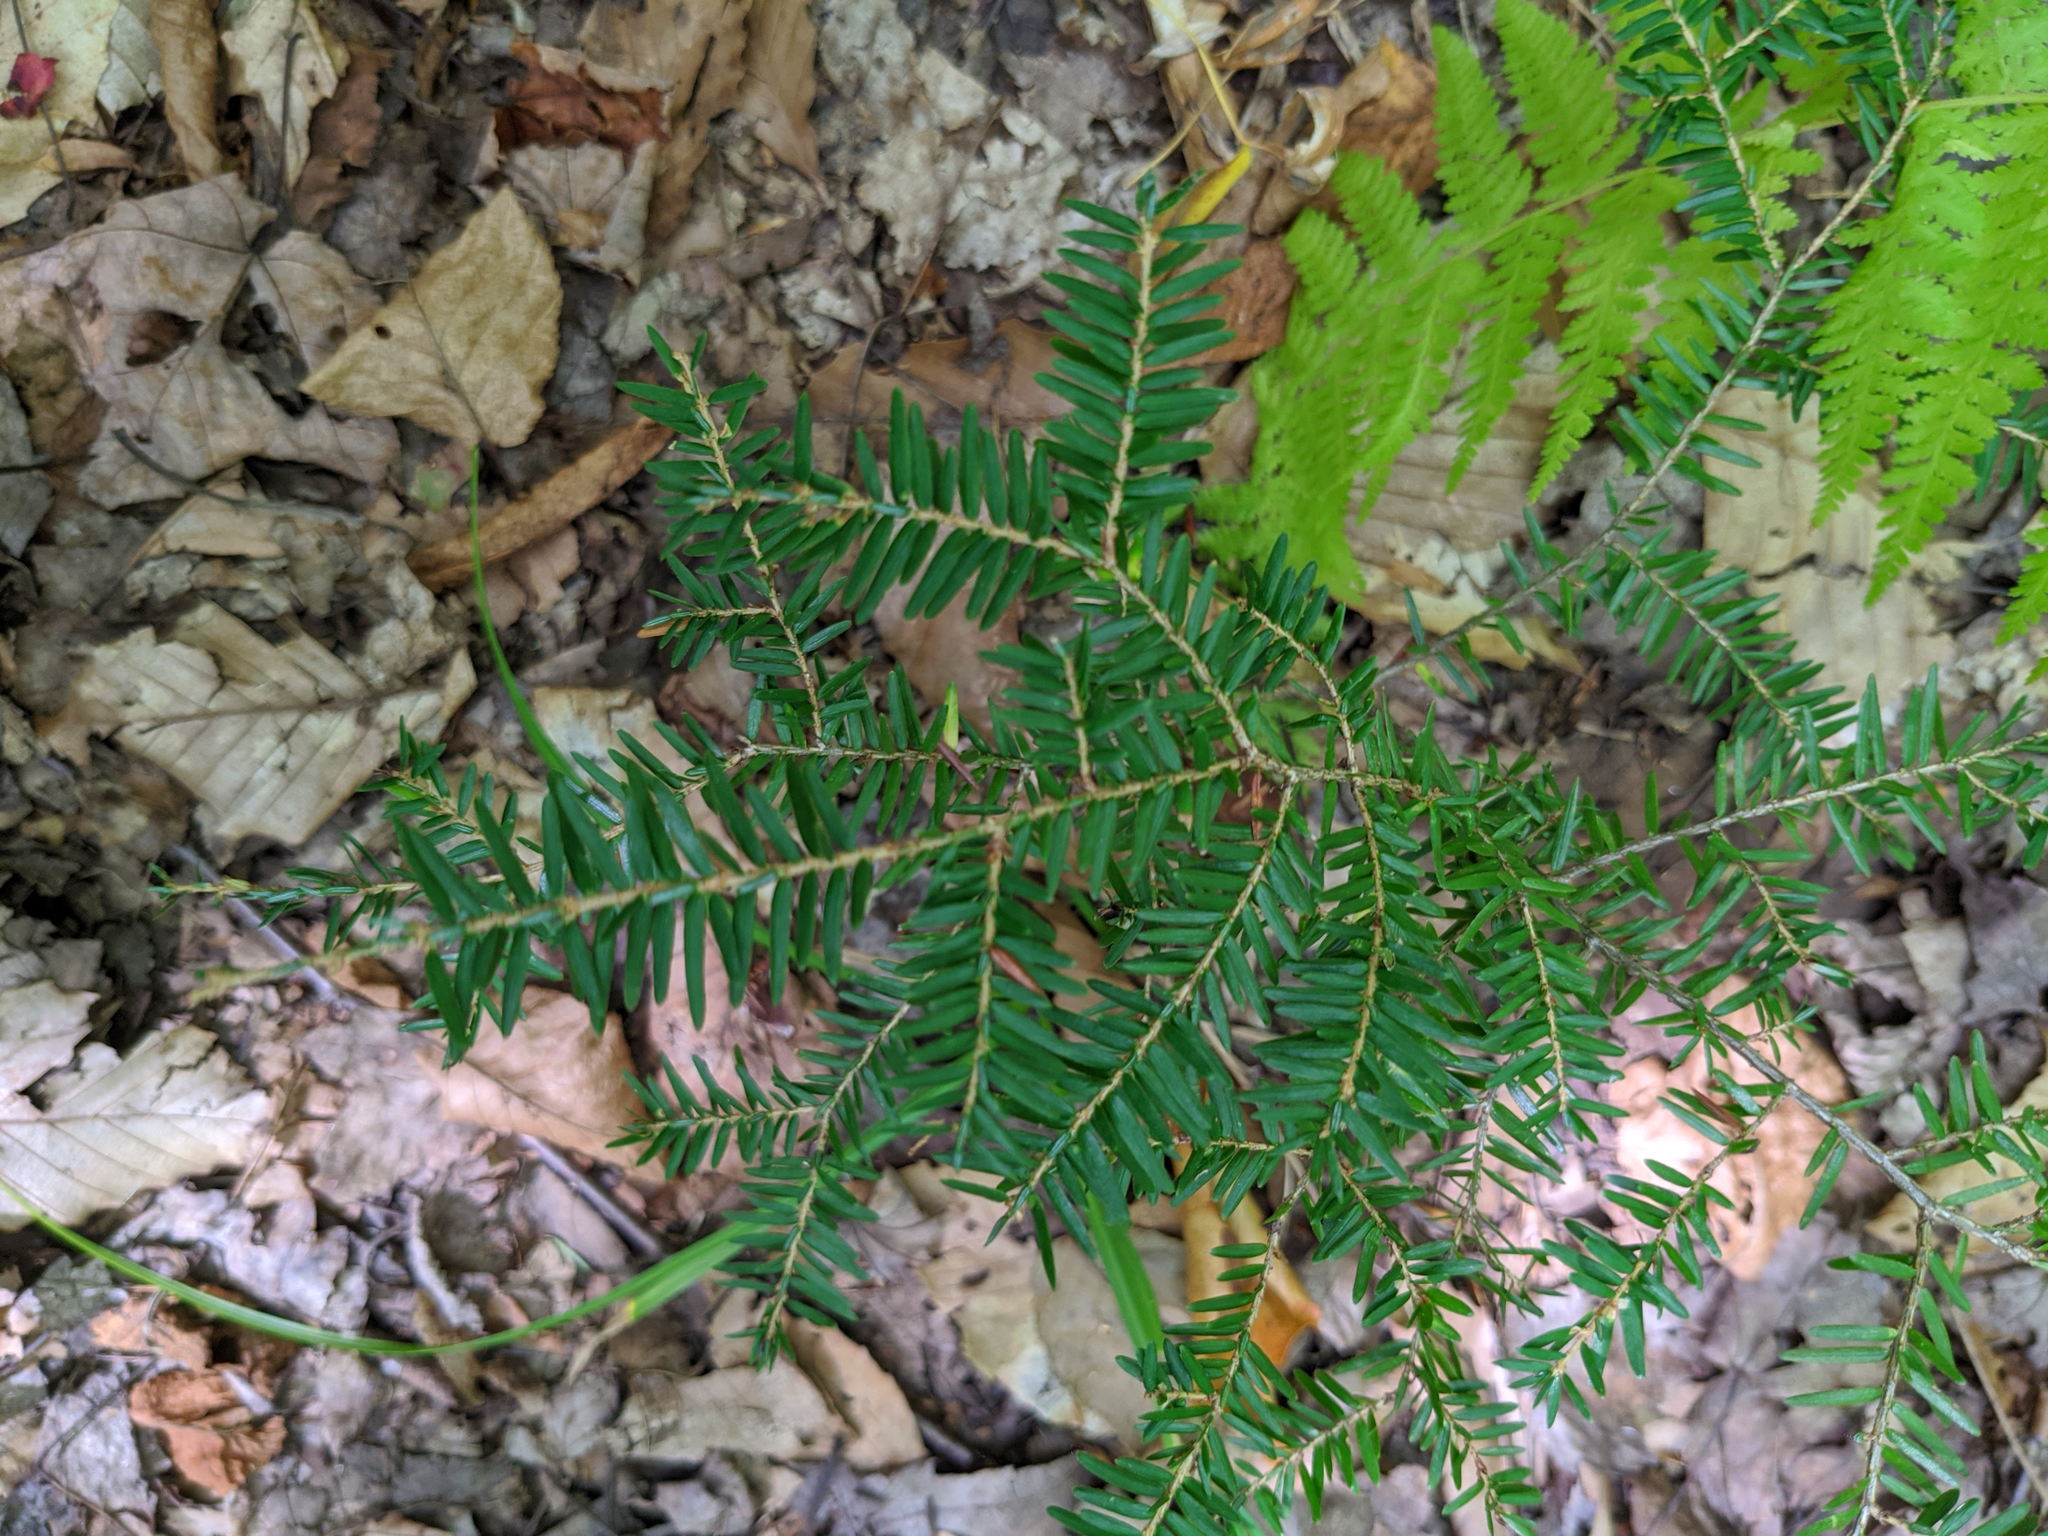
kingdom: Plantae
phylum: Tracheophyta
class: Pinopsida
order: Pinales
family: Pinaceae
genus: Tsuga
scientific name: Tsuga canadensis
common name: Eastern hemlock
